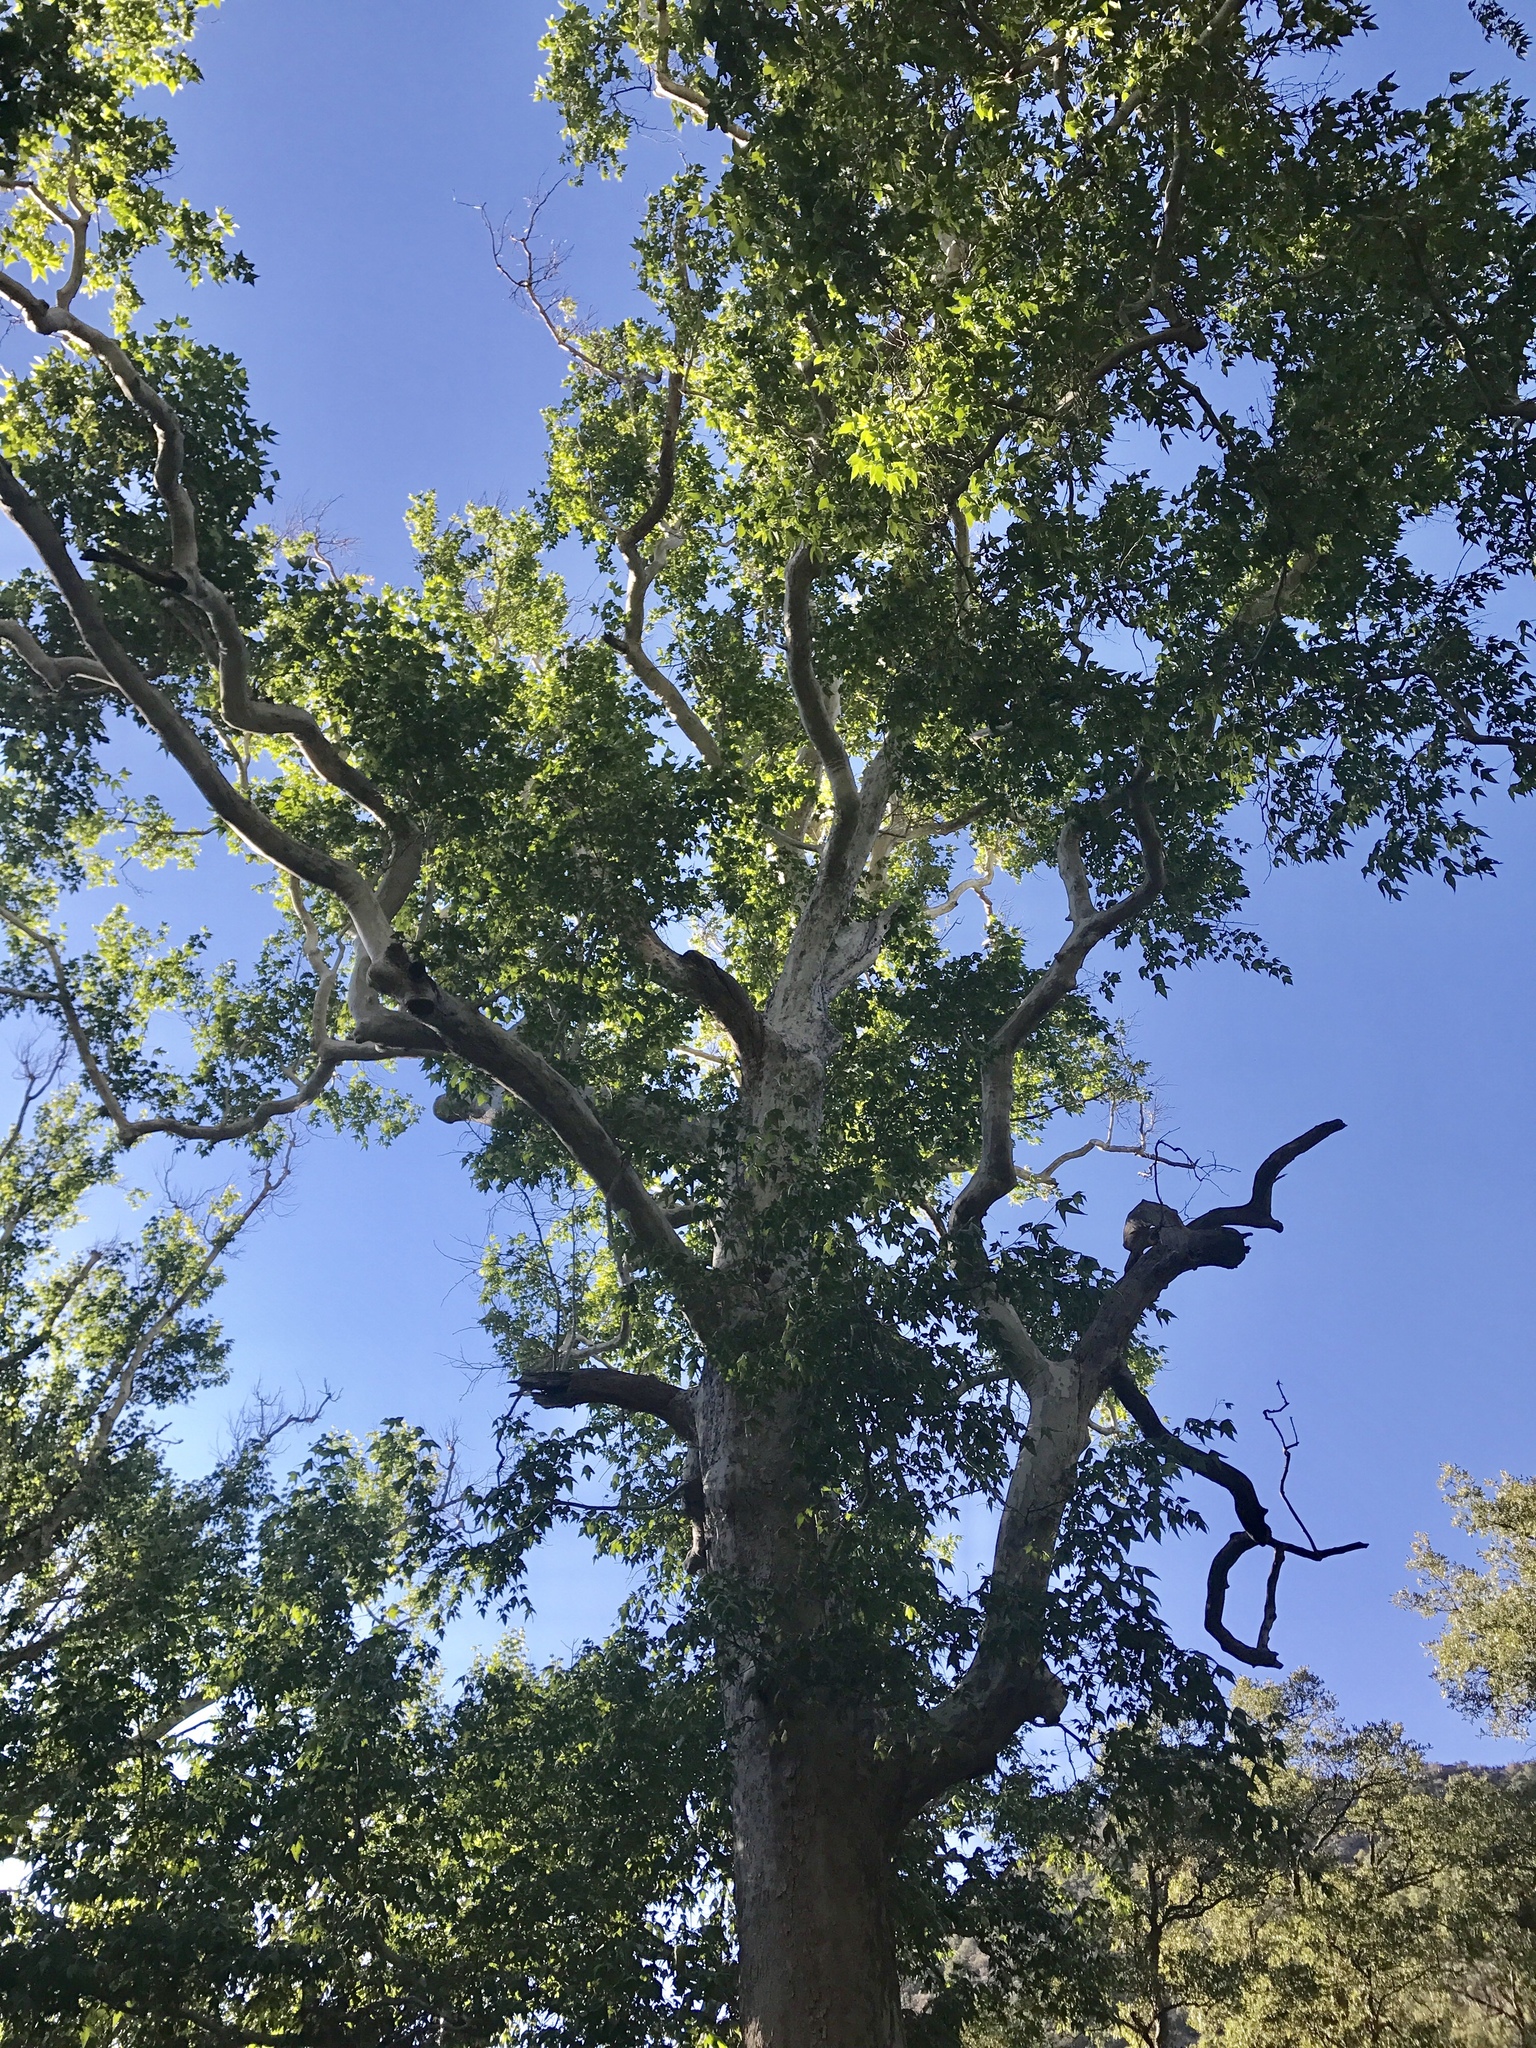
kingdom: Plantae
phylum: Tracheophyta
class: Magnoliopsida
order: Proteales
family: Platanaceae
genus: Platanus
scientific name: Platanus wrightii
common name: Arizona sycamore
